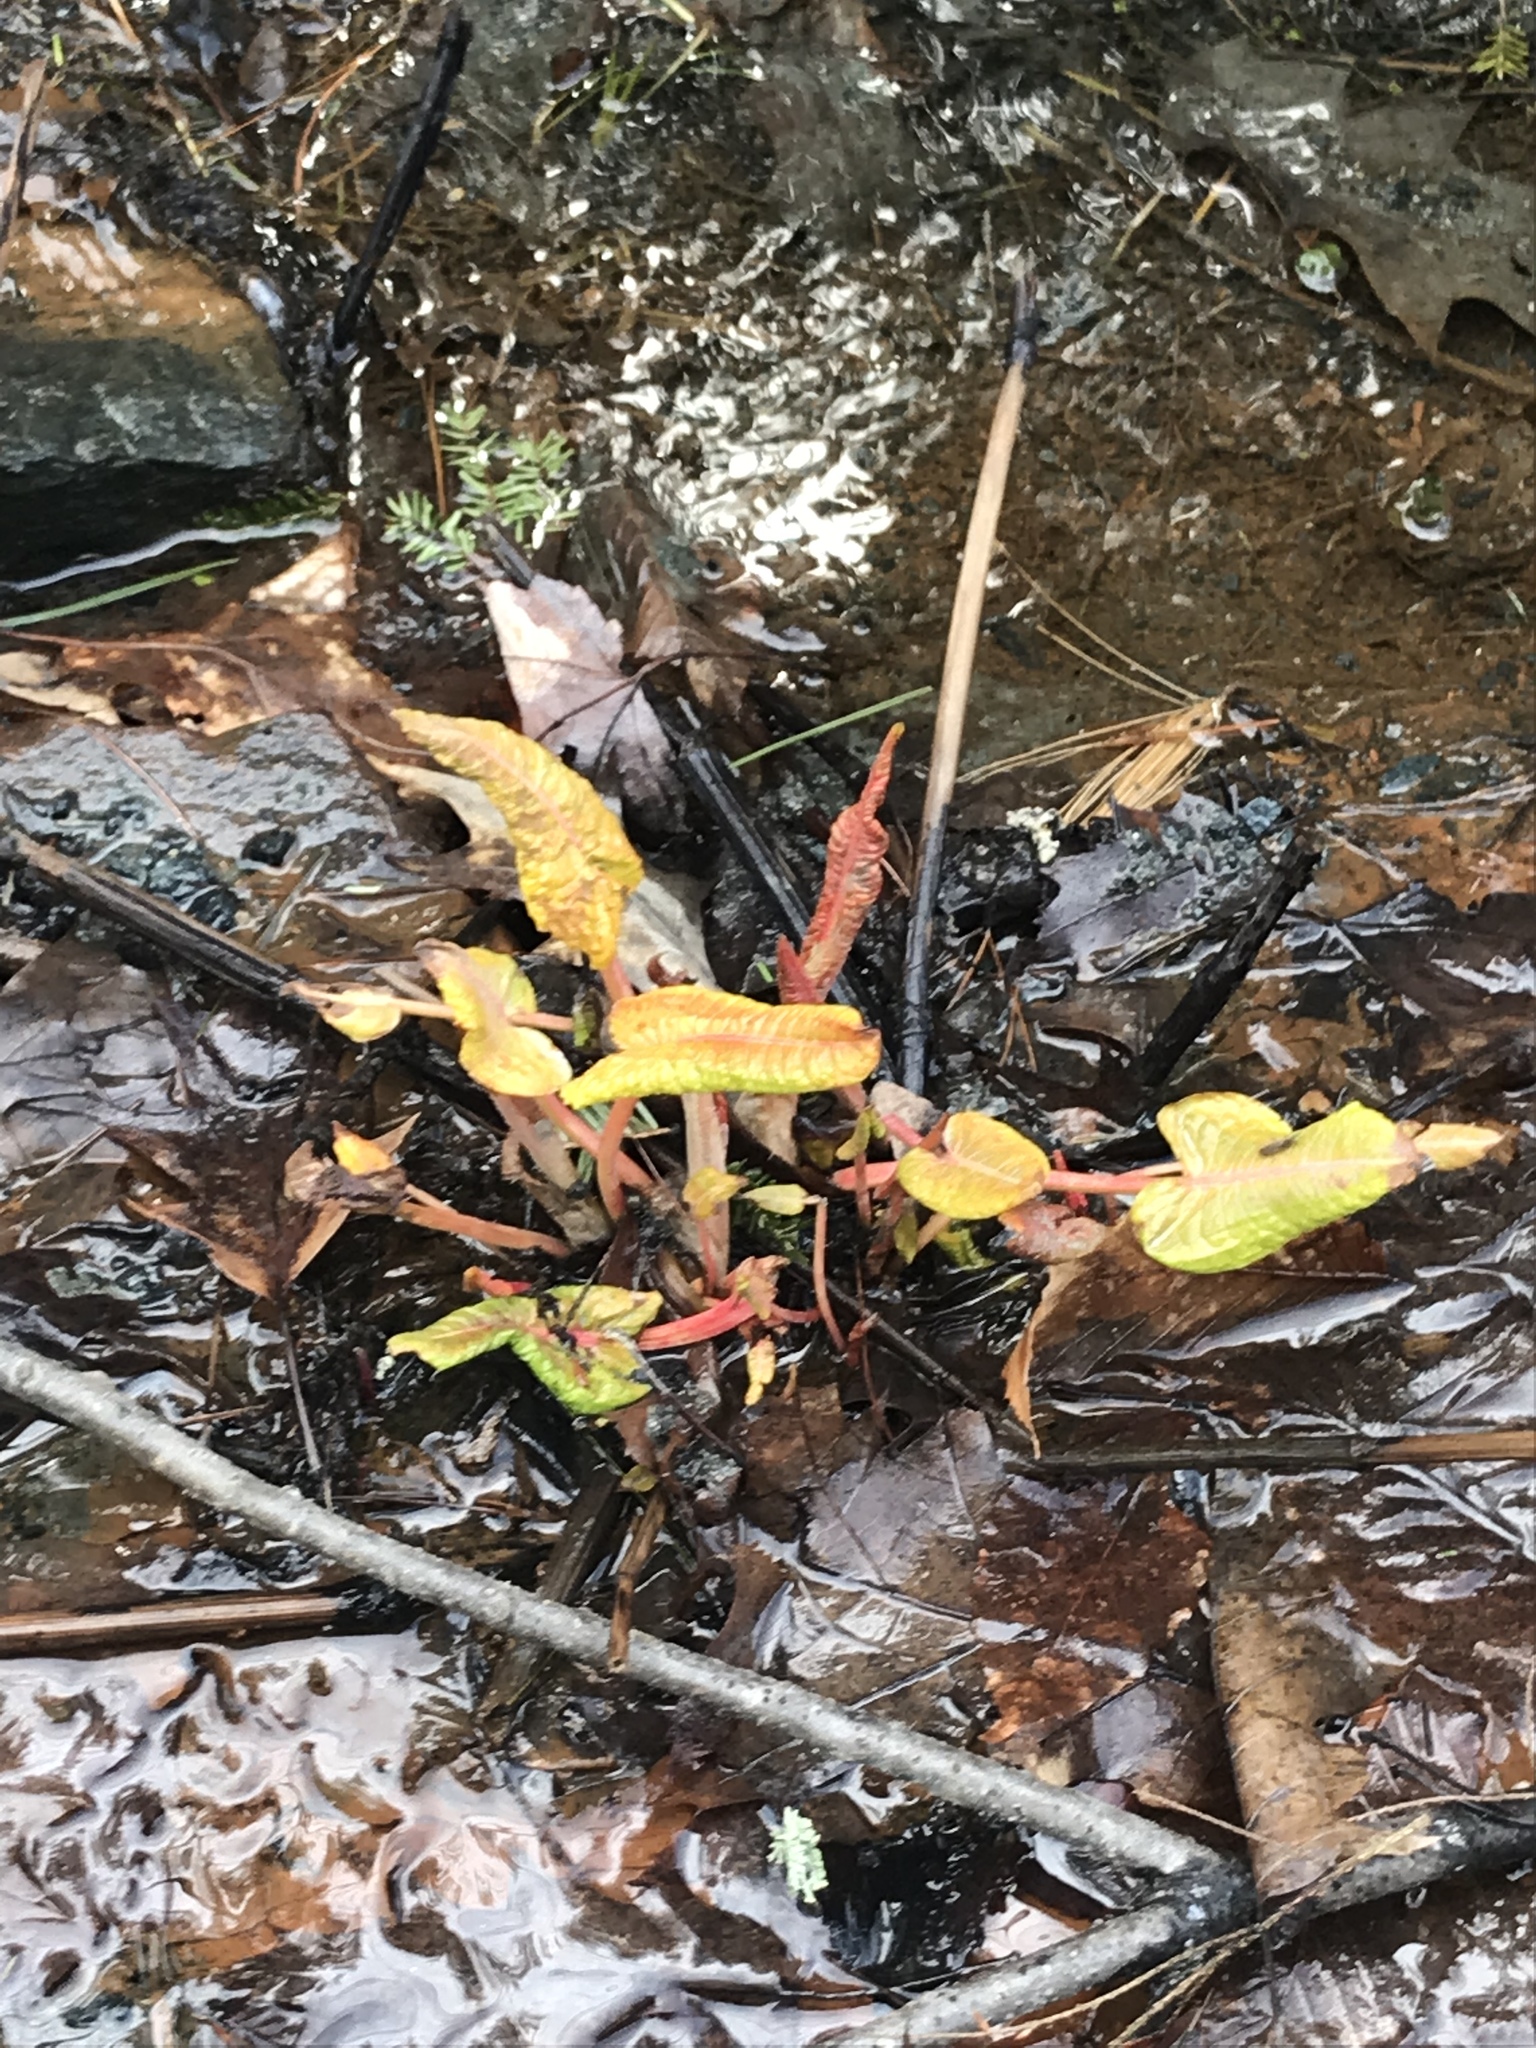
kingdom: Plantae
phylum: Tracheophyta
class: Magnoliopsida
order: Caryophyllales
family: Polygonaceae
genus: Reynoutria
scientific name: Reynoutria japonica
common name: Japanese knotweed
